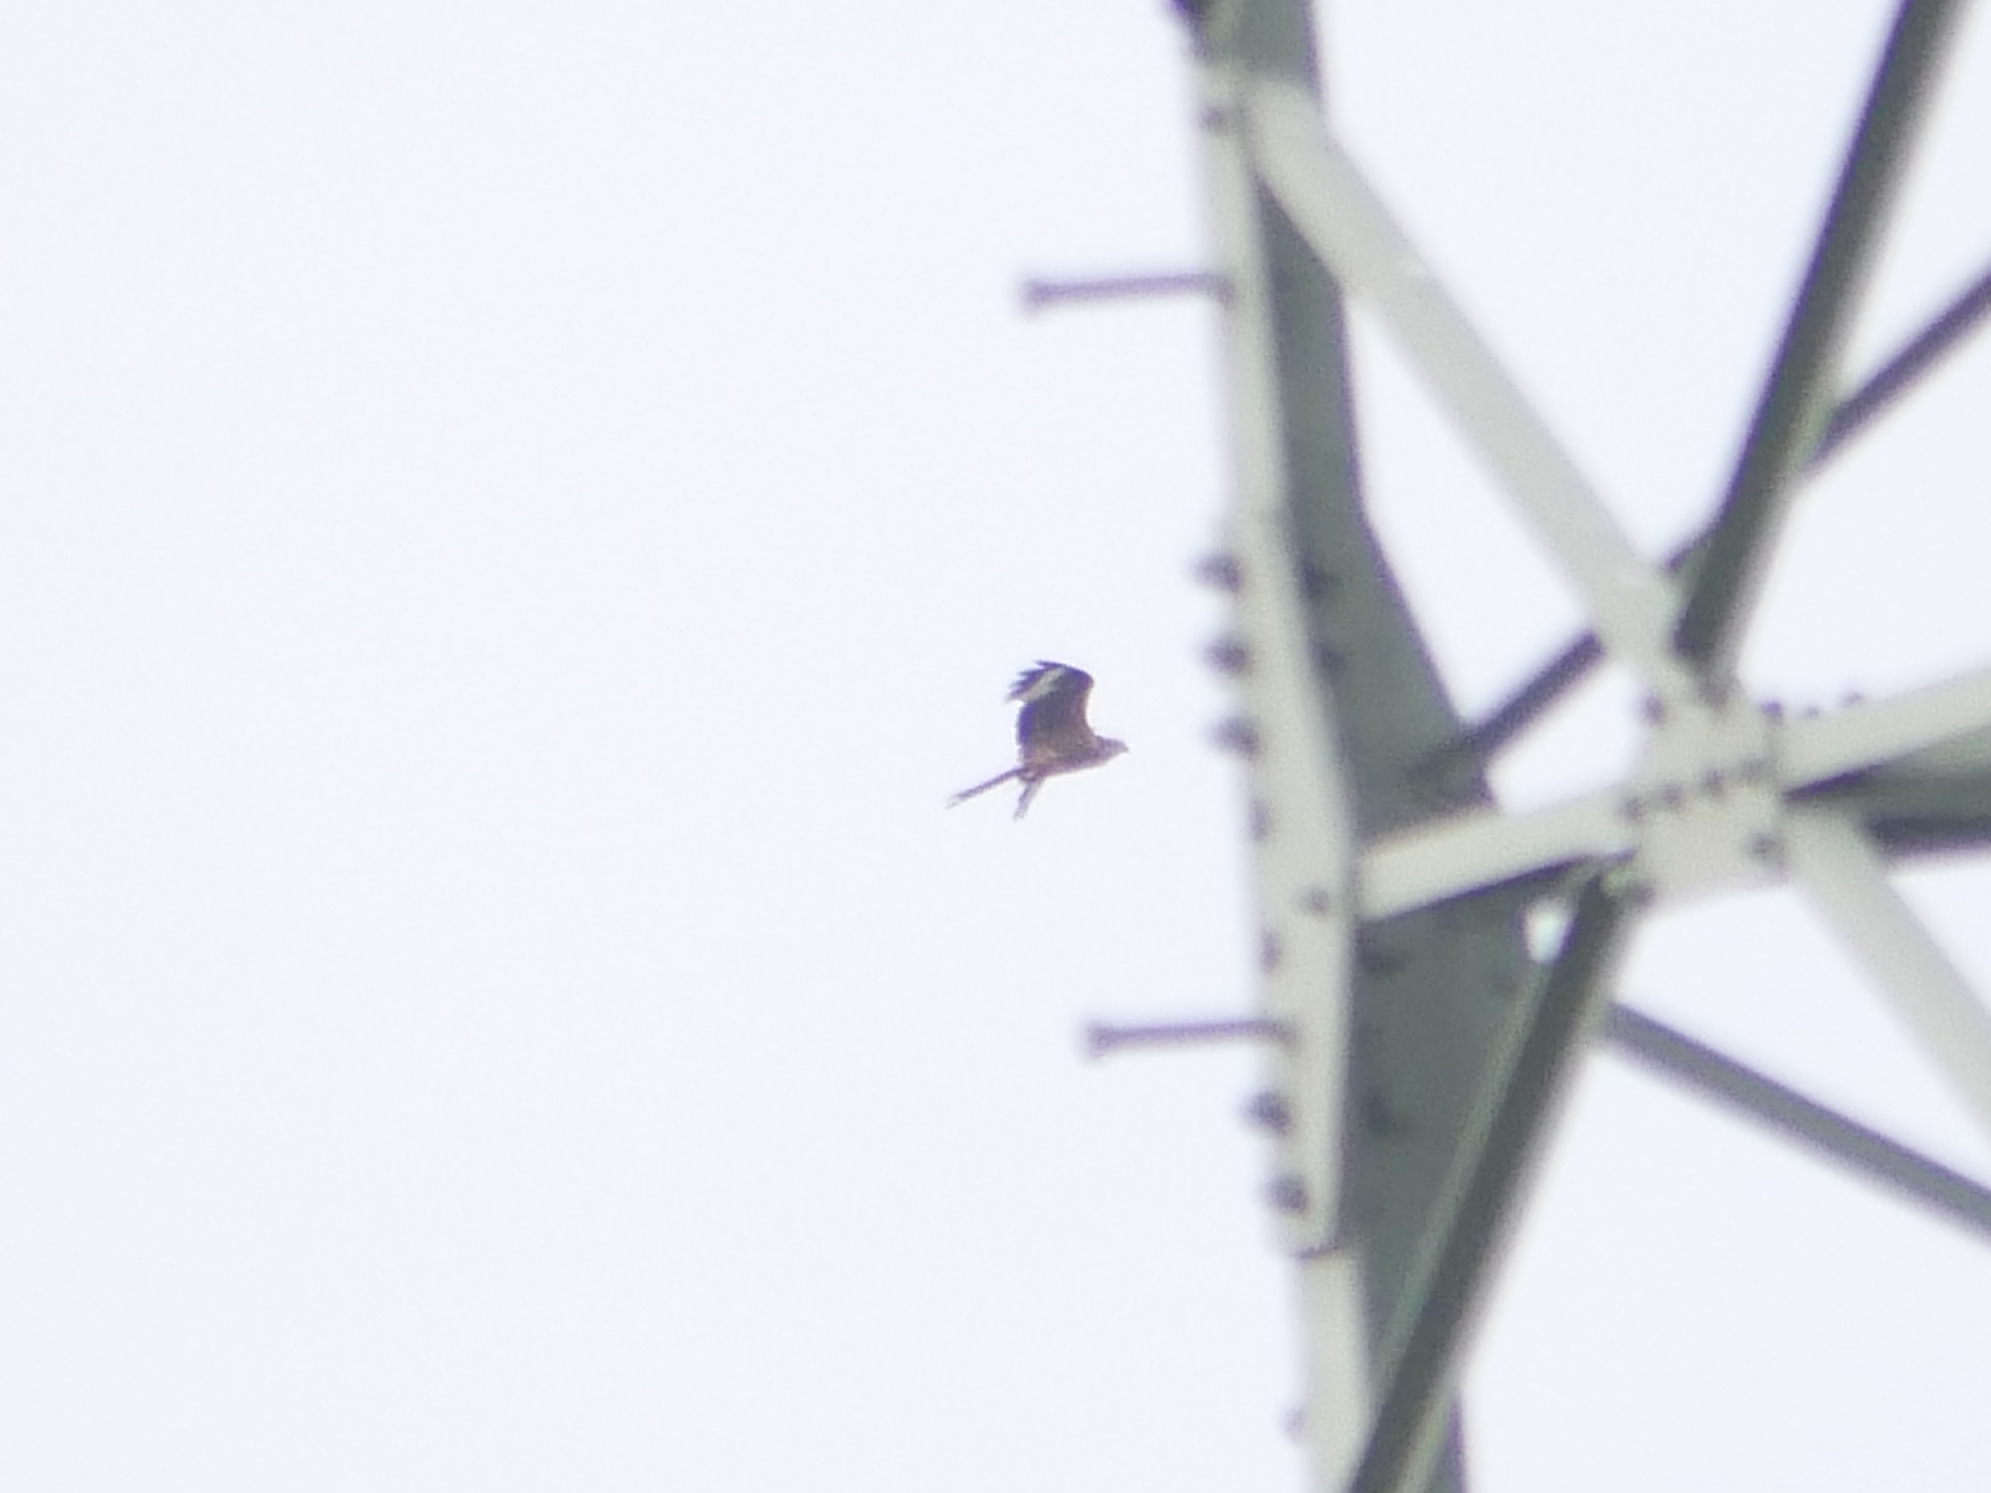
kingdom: Animalia
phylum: Chordata
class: Aves
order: Accipitriformes
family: Accipitridae
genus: Milvus
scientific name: Milvus milvus
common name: Red kite
